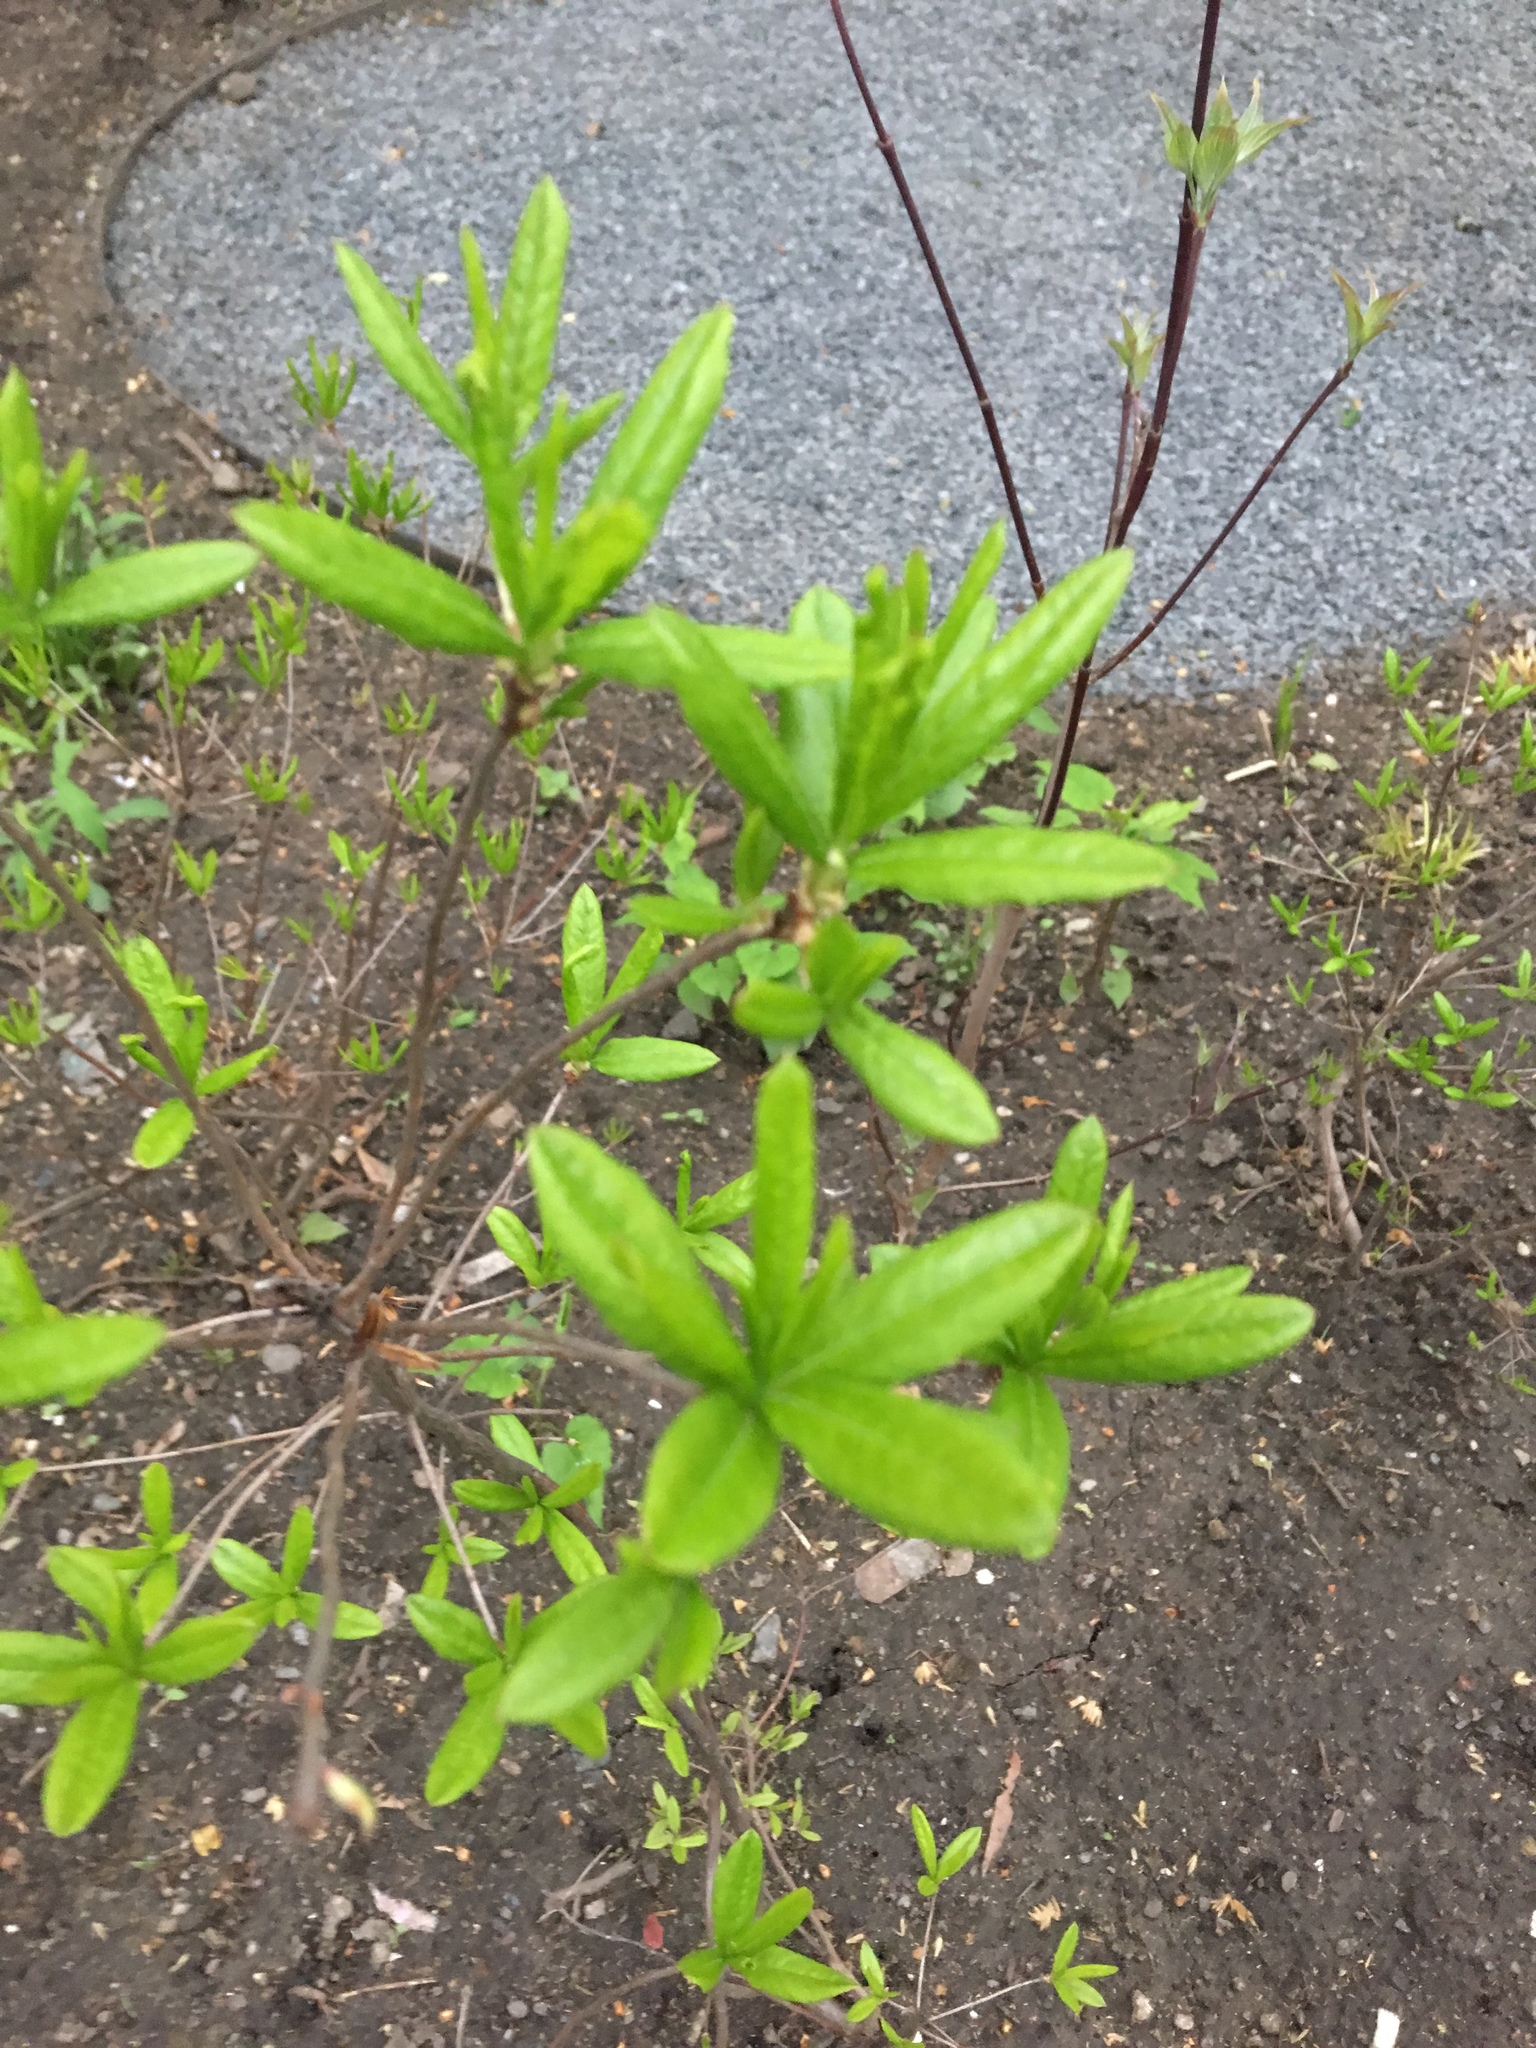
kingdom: Plantae
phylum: Tracheophyta
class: Magnoliopsida
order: Ericales
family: Ericaceae
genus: Rhododendron
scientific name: Rhododendron viscosum
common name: Clammy azalea
